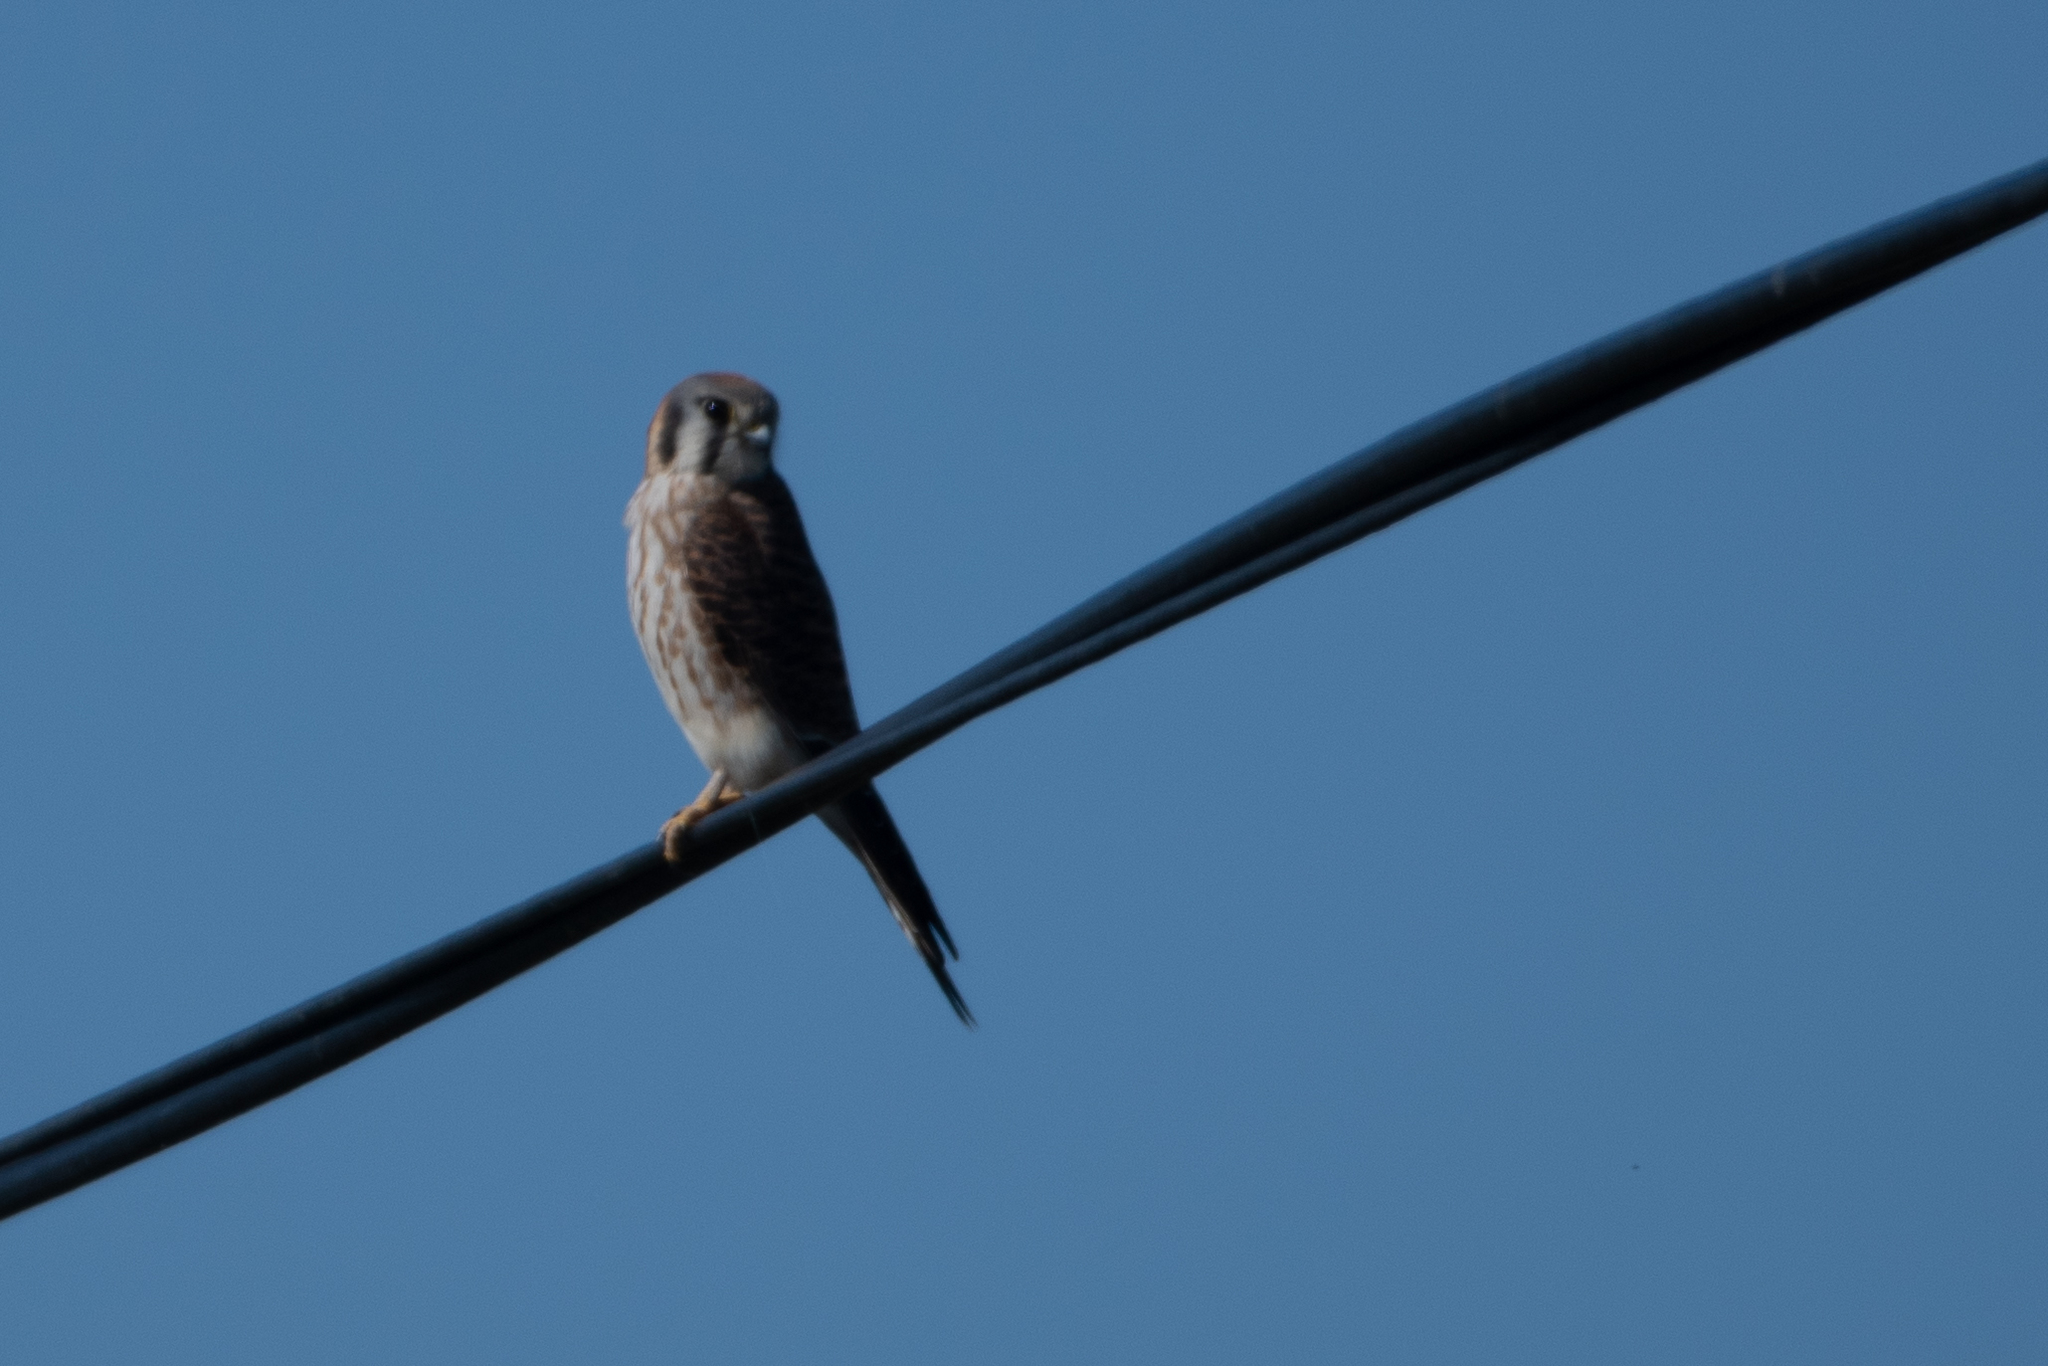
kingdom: Animalia
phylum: Chordata
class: Aves
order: Falconiformes
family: Falconidae
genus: Falco
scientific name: Falco sparverius
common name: American kestrel
